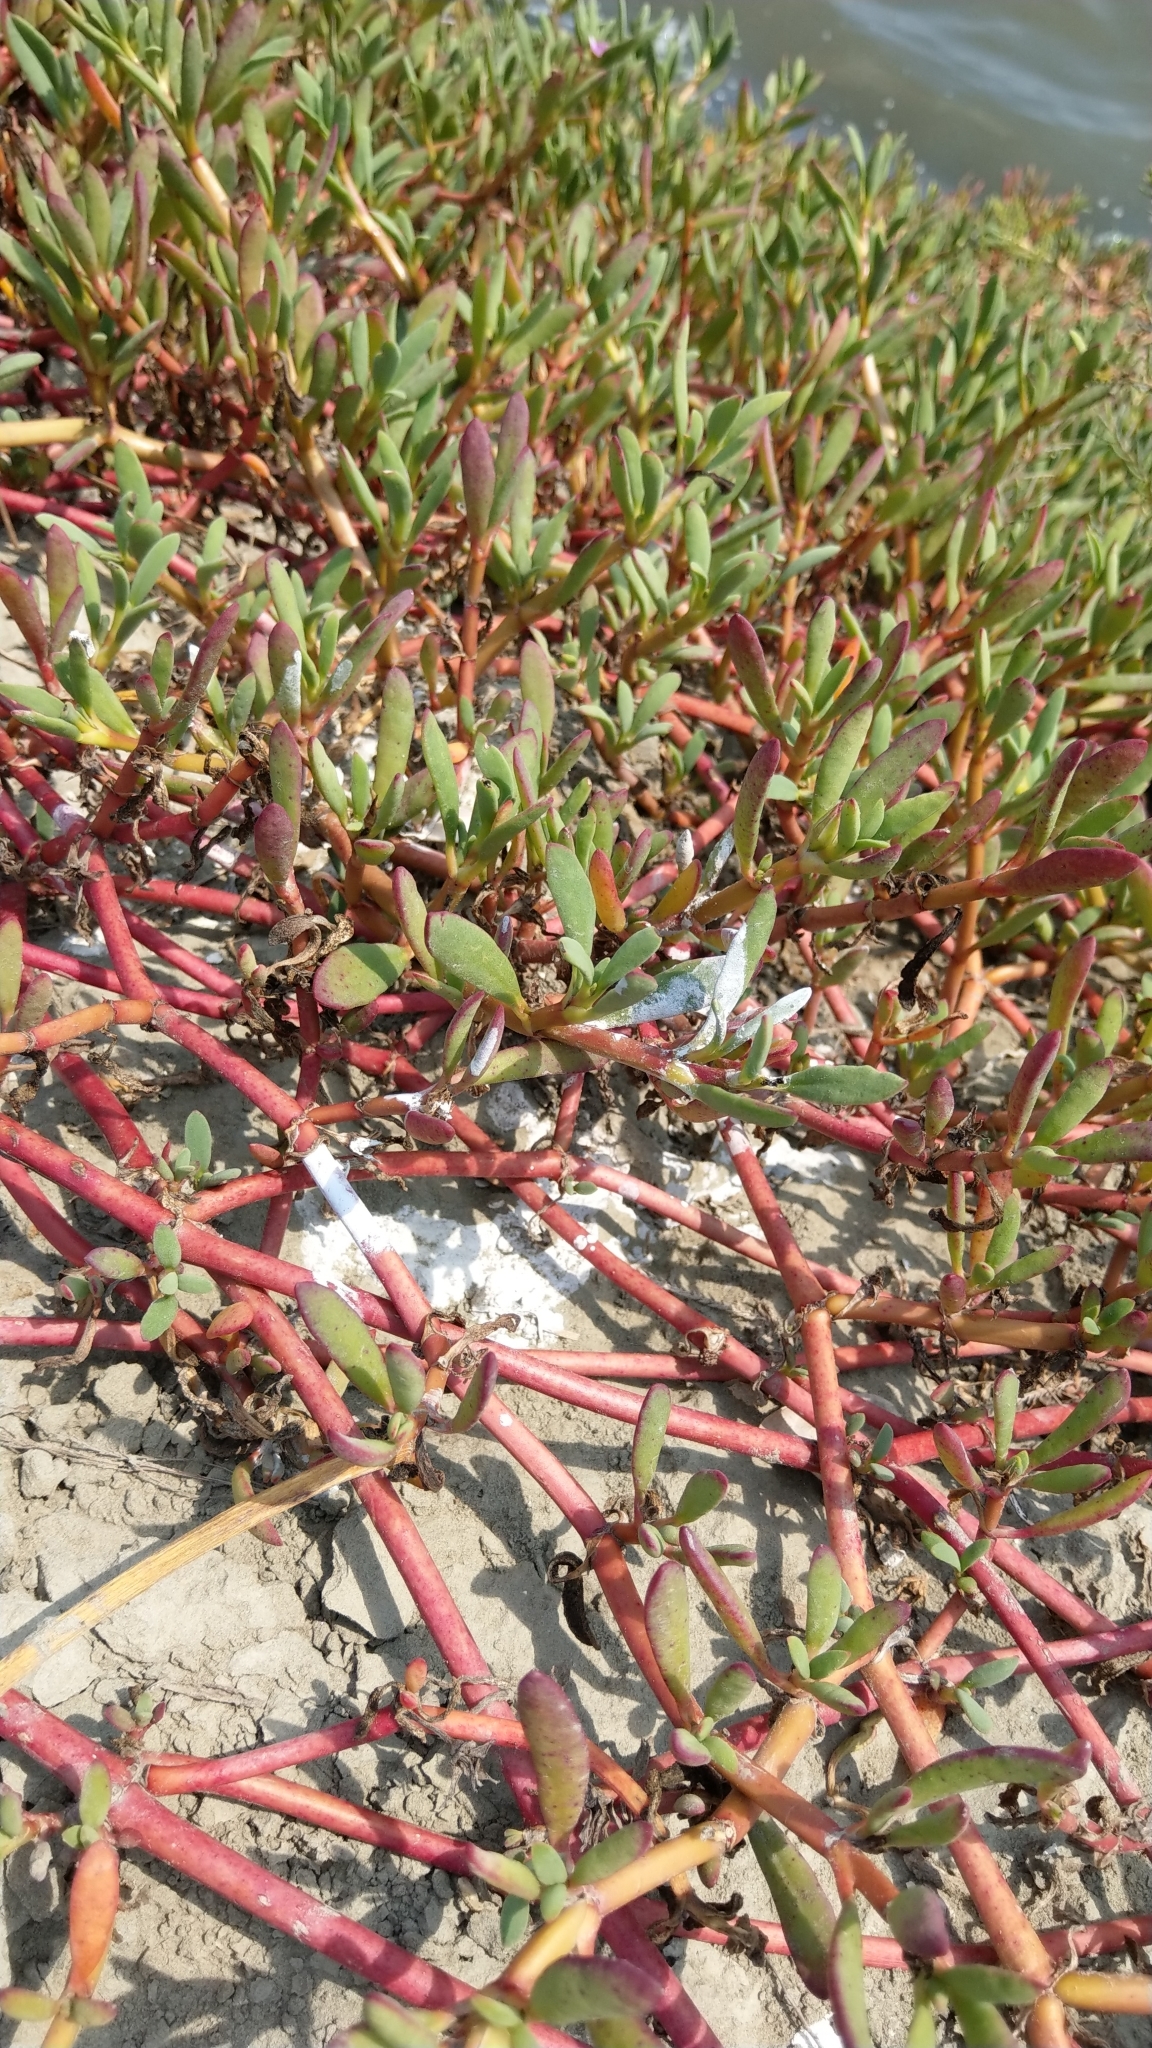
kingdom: Plantae
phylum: Tracheophyta
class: Magnoliopsida
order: Caryophyllales
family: Aizoaceae
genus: Sesuvium
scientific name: Sesuvium portulacastrum
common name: Sea-purslane
